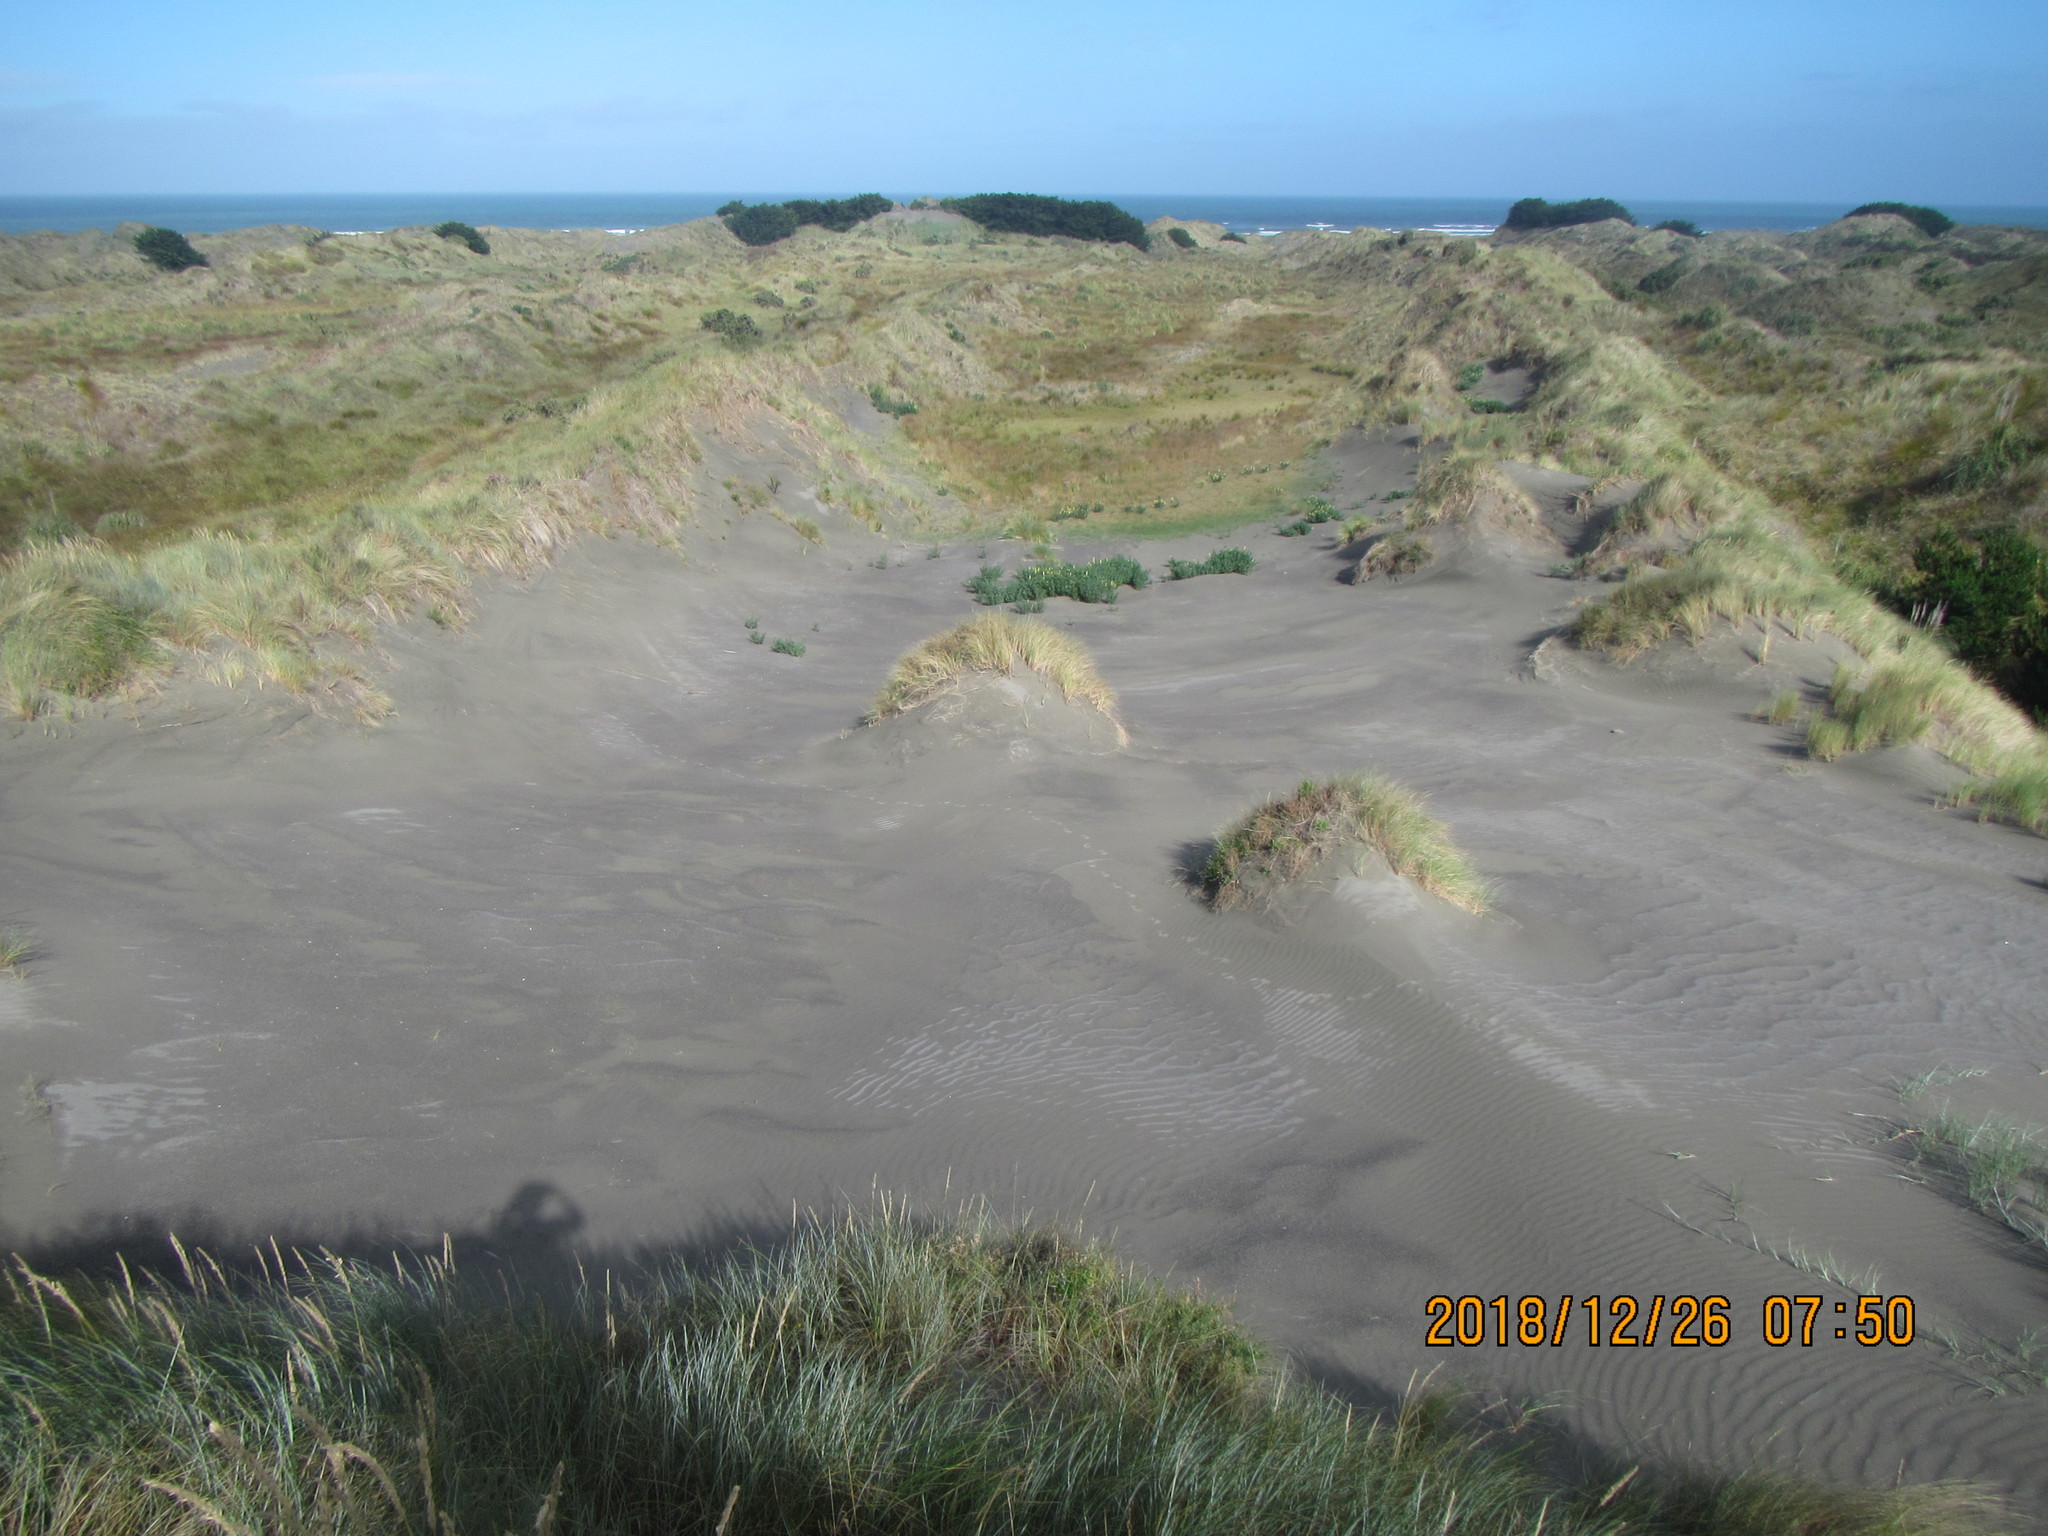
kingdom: Plantae
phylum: Tracheophyta
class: Magnoliopsida
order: Fabales
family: Fabaceae
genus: Lupinus
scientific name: Lupinus arboreus
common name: Yellow bush lupine
